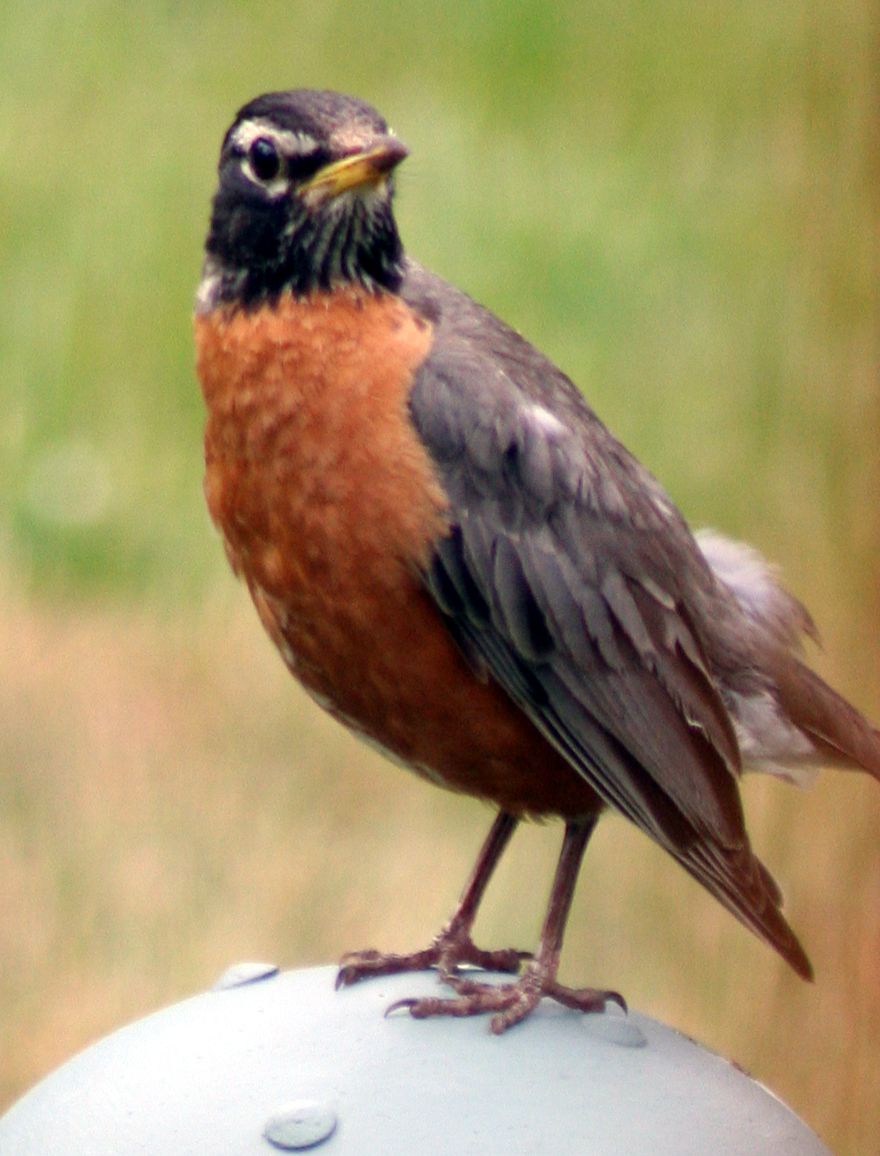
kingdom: Animalia
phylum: Chordata
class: Aves
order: Passeriformes
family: Turdidae
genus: Turdus
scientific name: Turdus migratorius
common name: American robin
